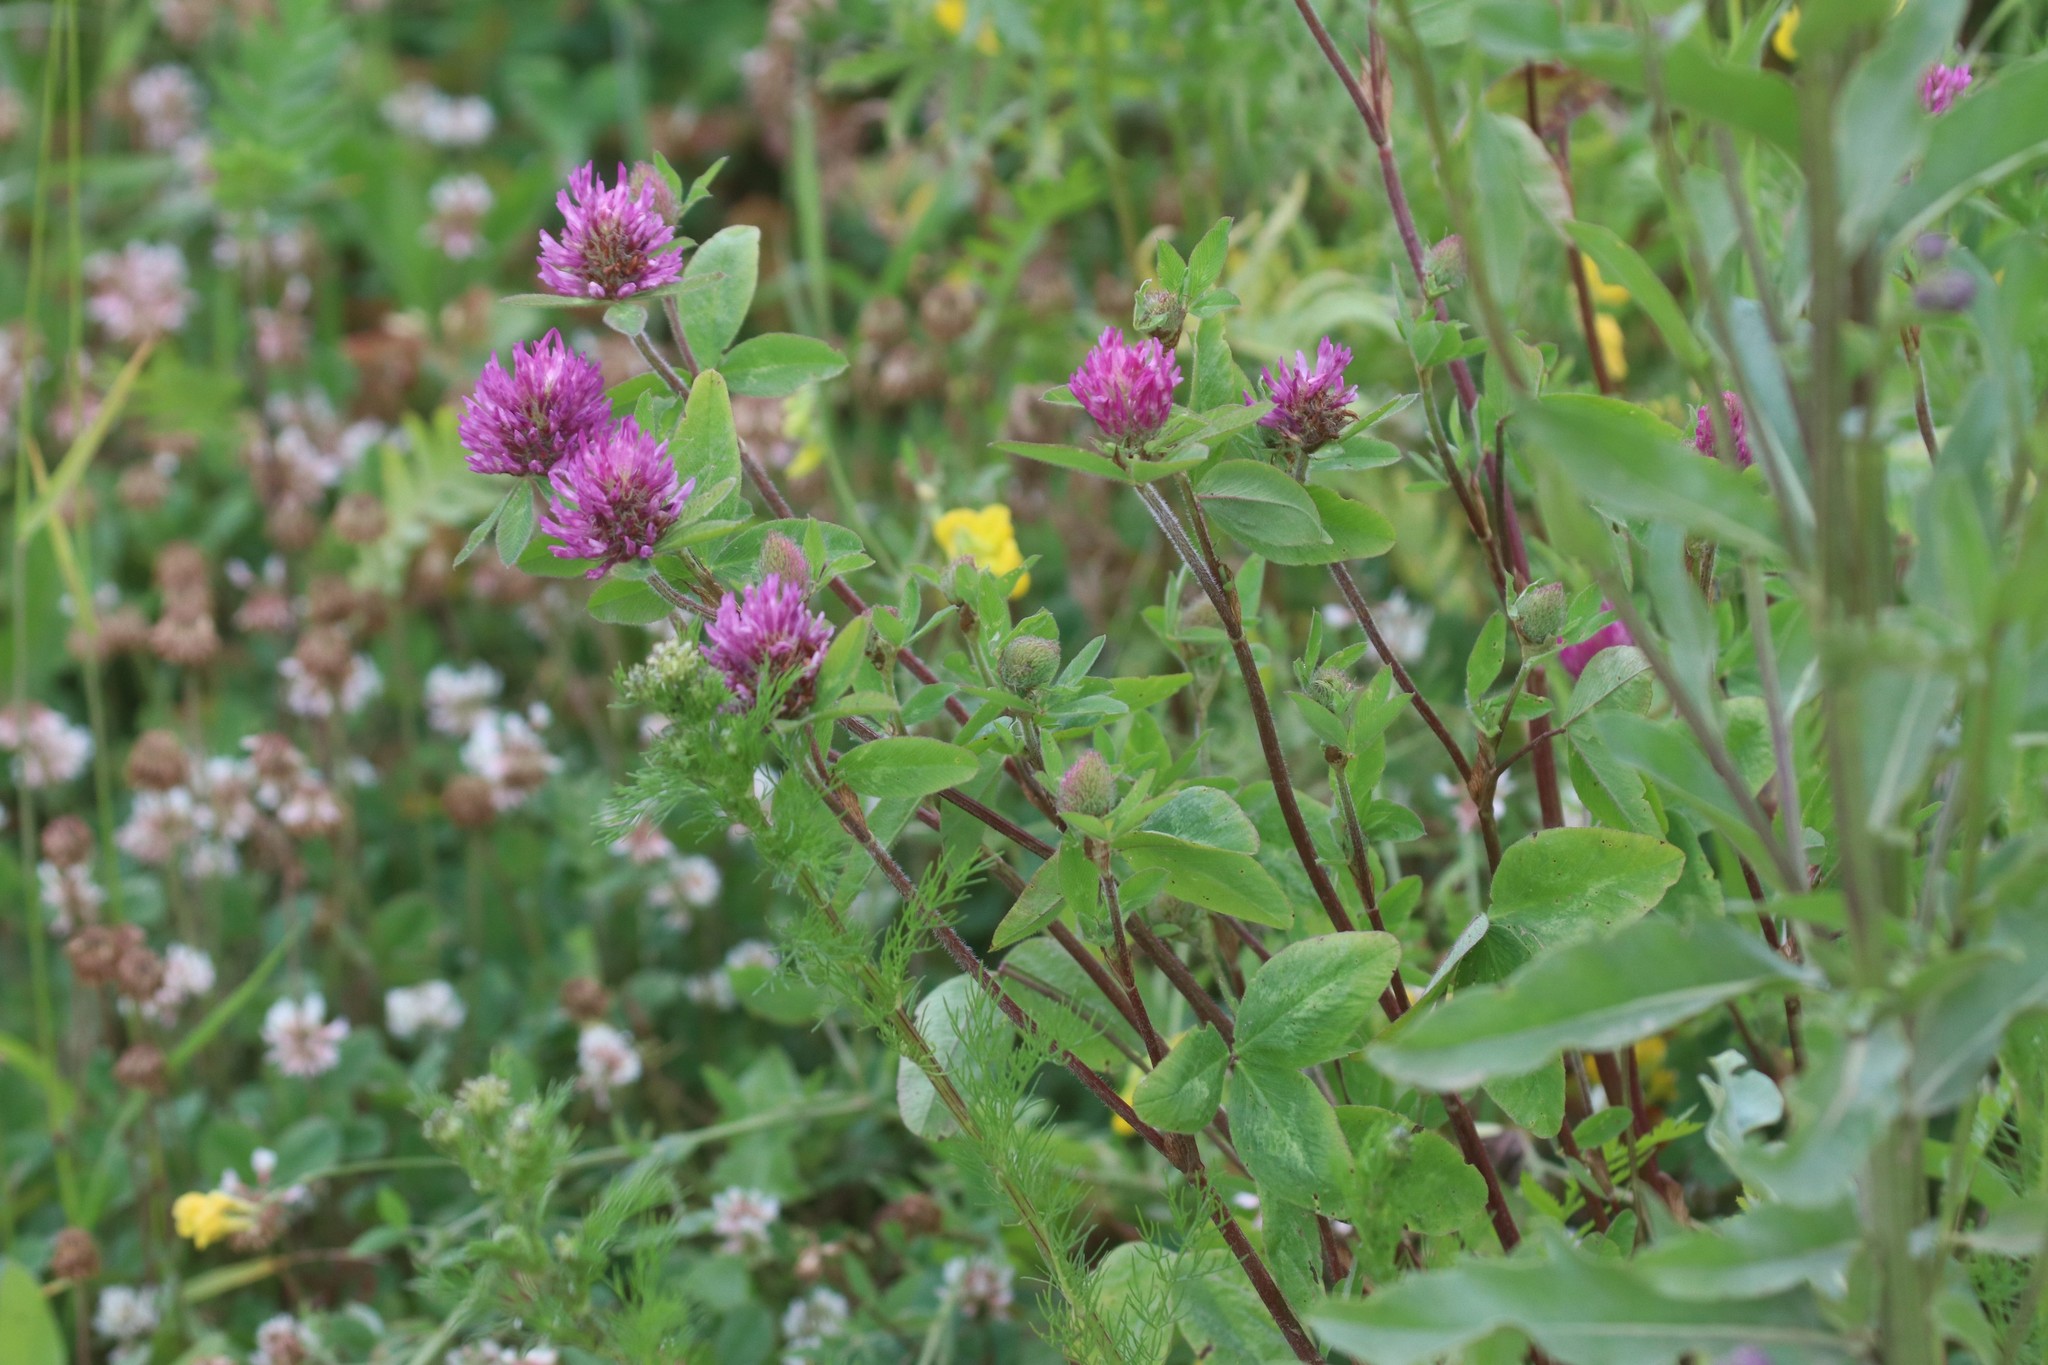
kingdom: Plantae
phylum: Tracheophyta
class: Magnoliopsida
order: Fabales
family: Fabaceae
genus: Trifolium
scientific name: Trifolium pratense
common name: Red clover
